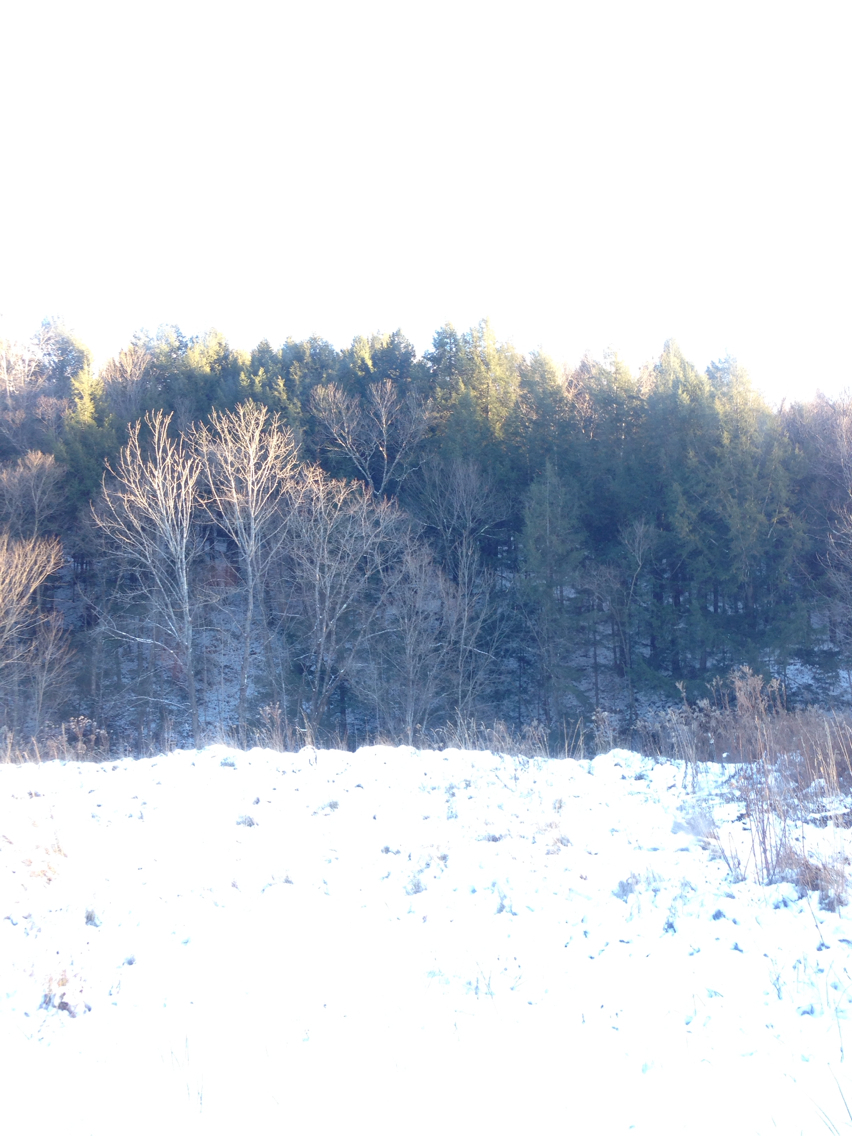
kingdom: Plantae
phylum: Tracheophyta
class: Pinopsida
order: Pinales
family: Pinaceae
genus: Tsuga
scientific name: Tsuga canadensis
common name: Eastern hemlock
